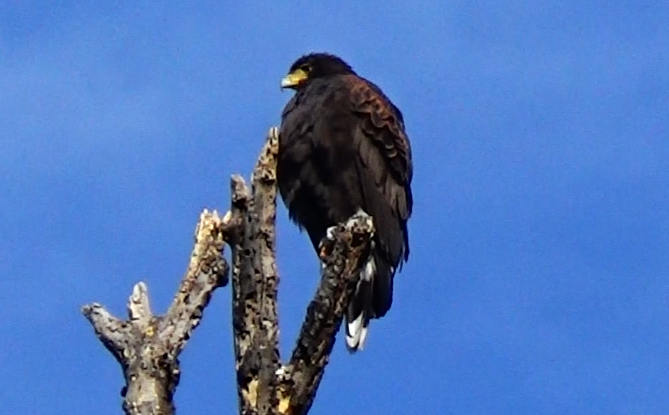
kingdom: Animalia
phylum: Chordata
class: Aves
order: Accipitriformes
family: Accipitridae
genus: Parabuteo
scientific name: Parabuteo unicinctus
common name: Harris's hawk
